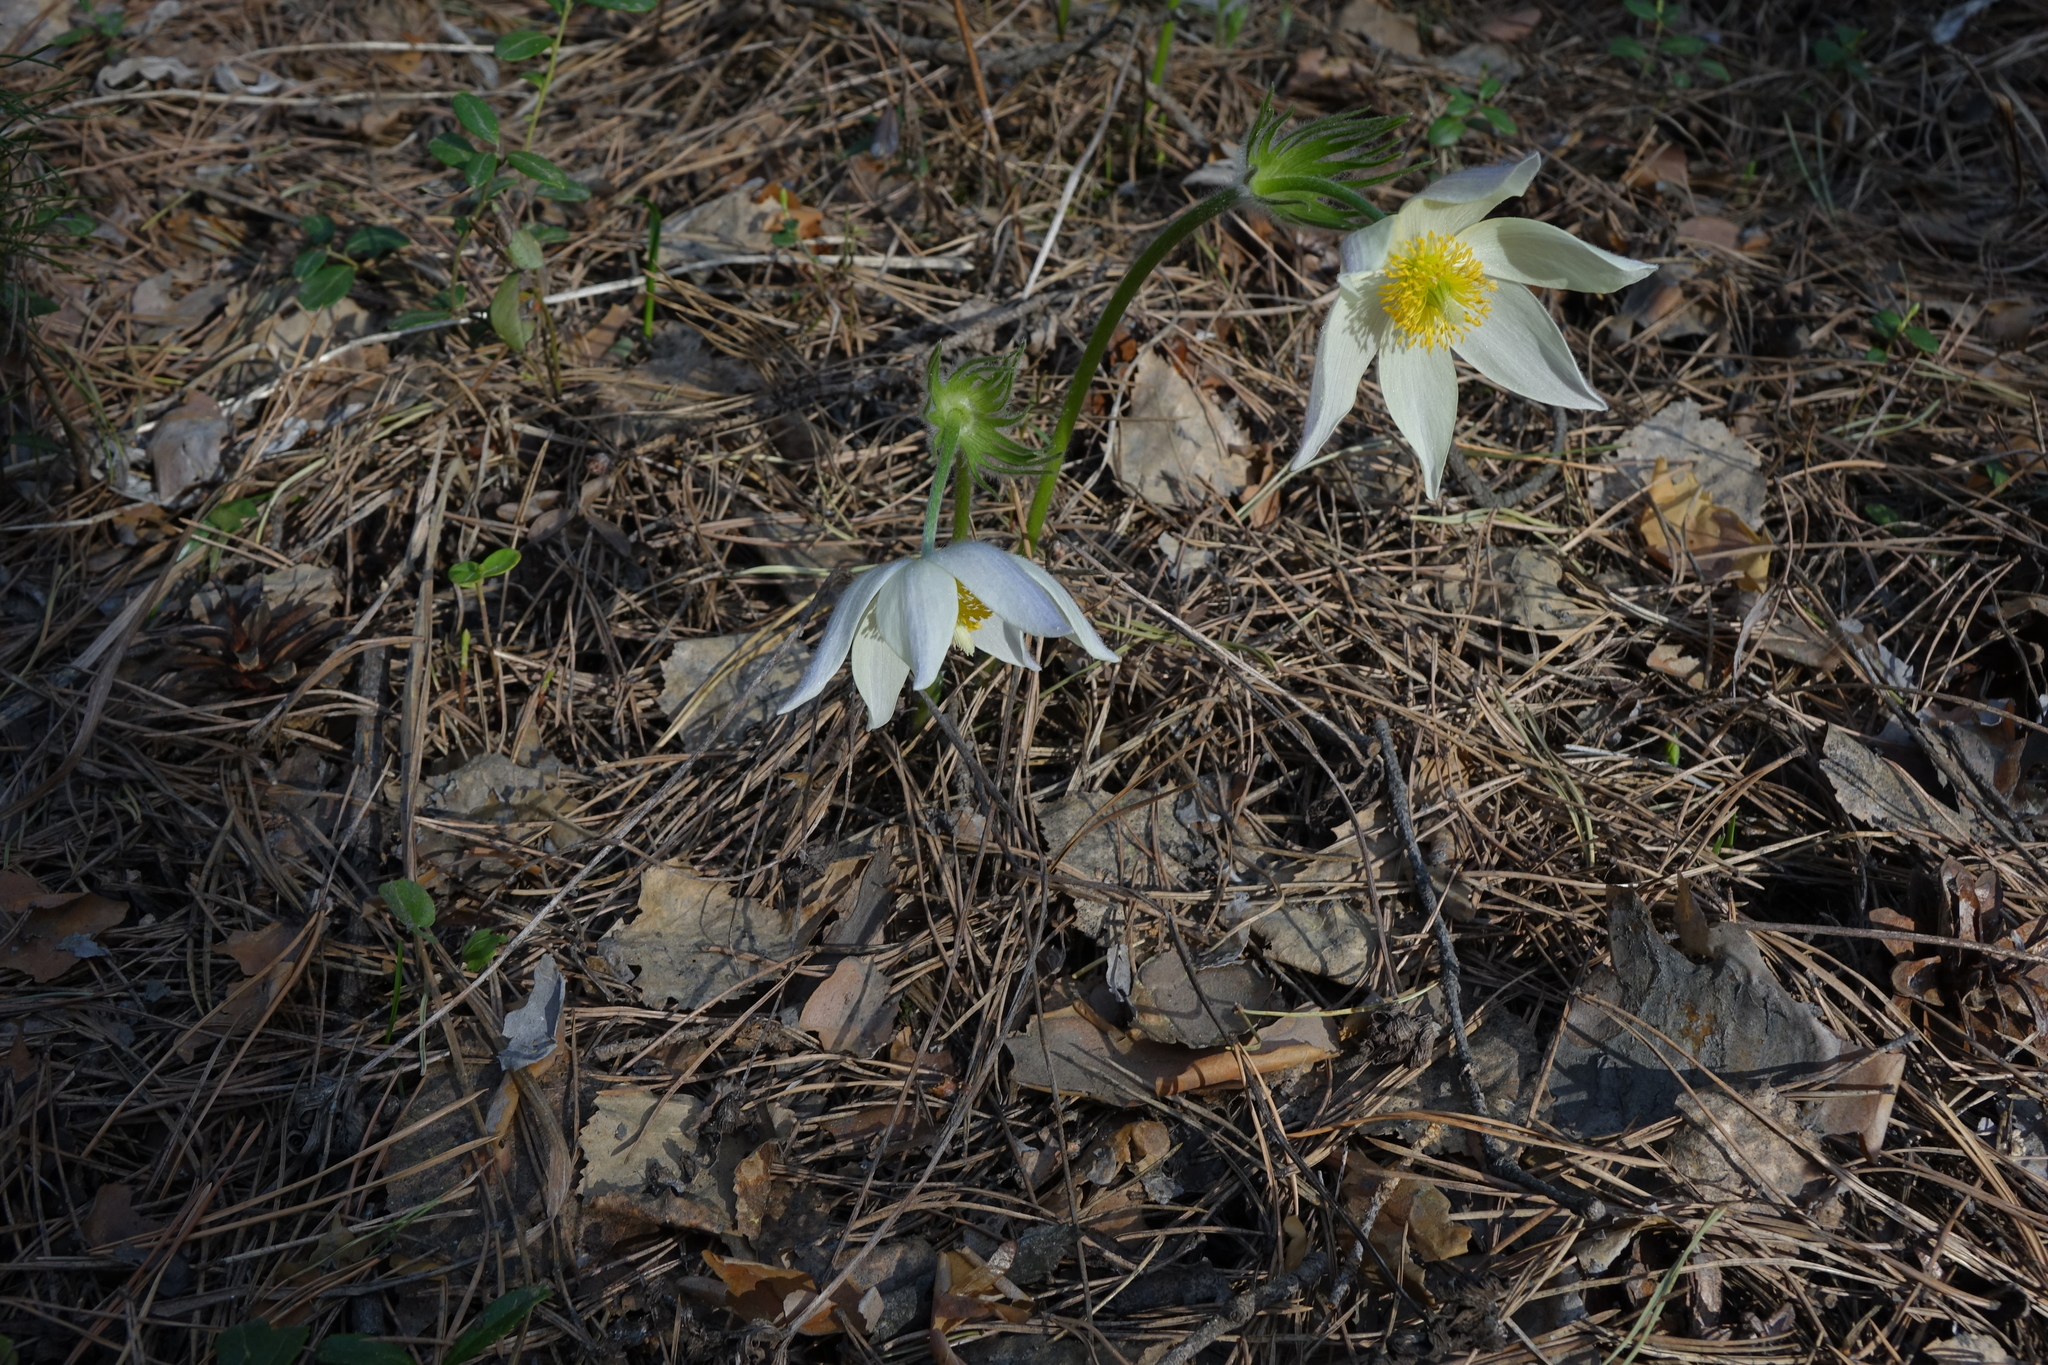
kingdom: Plantae
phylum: Tracheophyta
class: Magnoliopsida
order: Ranunculales
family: Ranunculaceae
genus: Pulsatilla
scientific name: Pulsatilla patens
